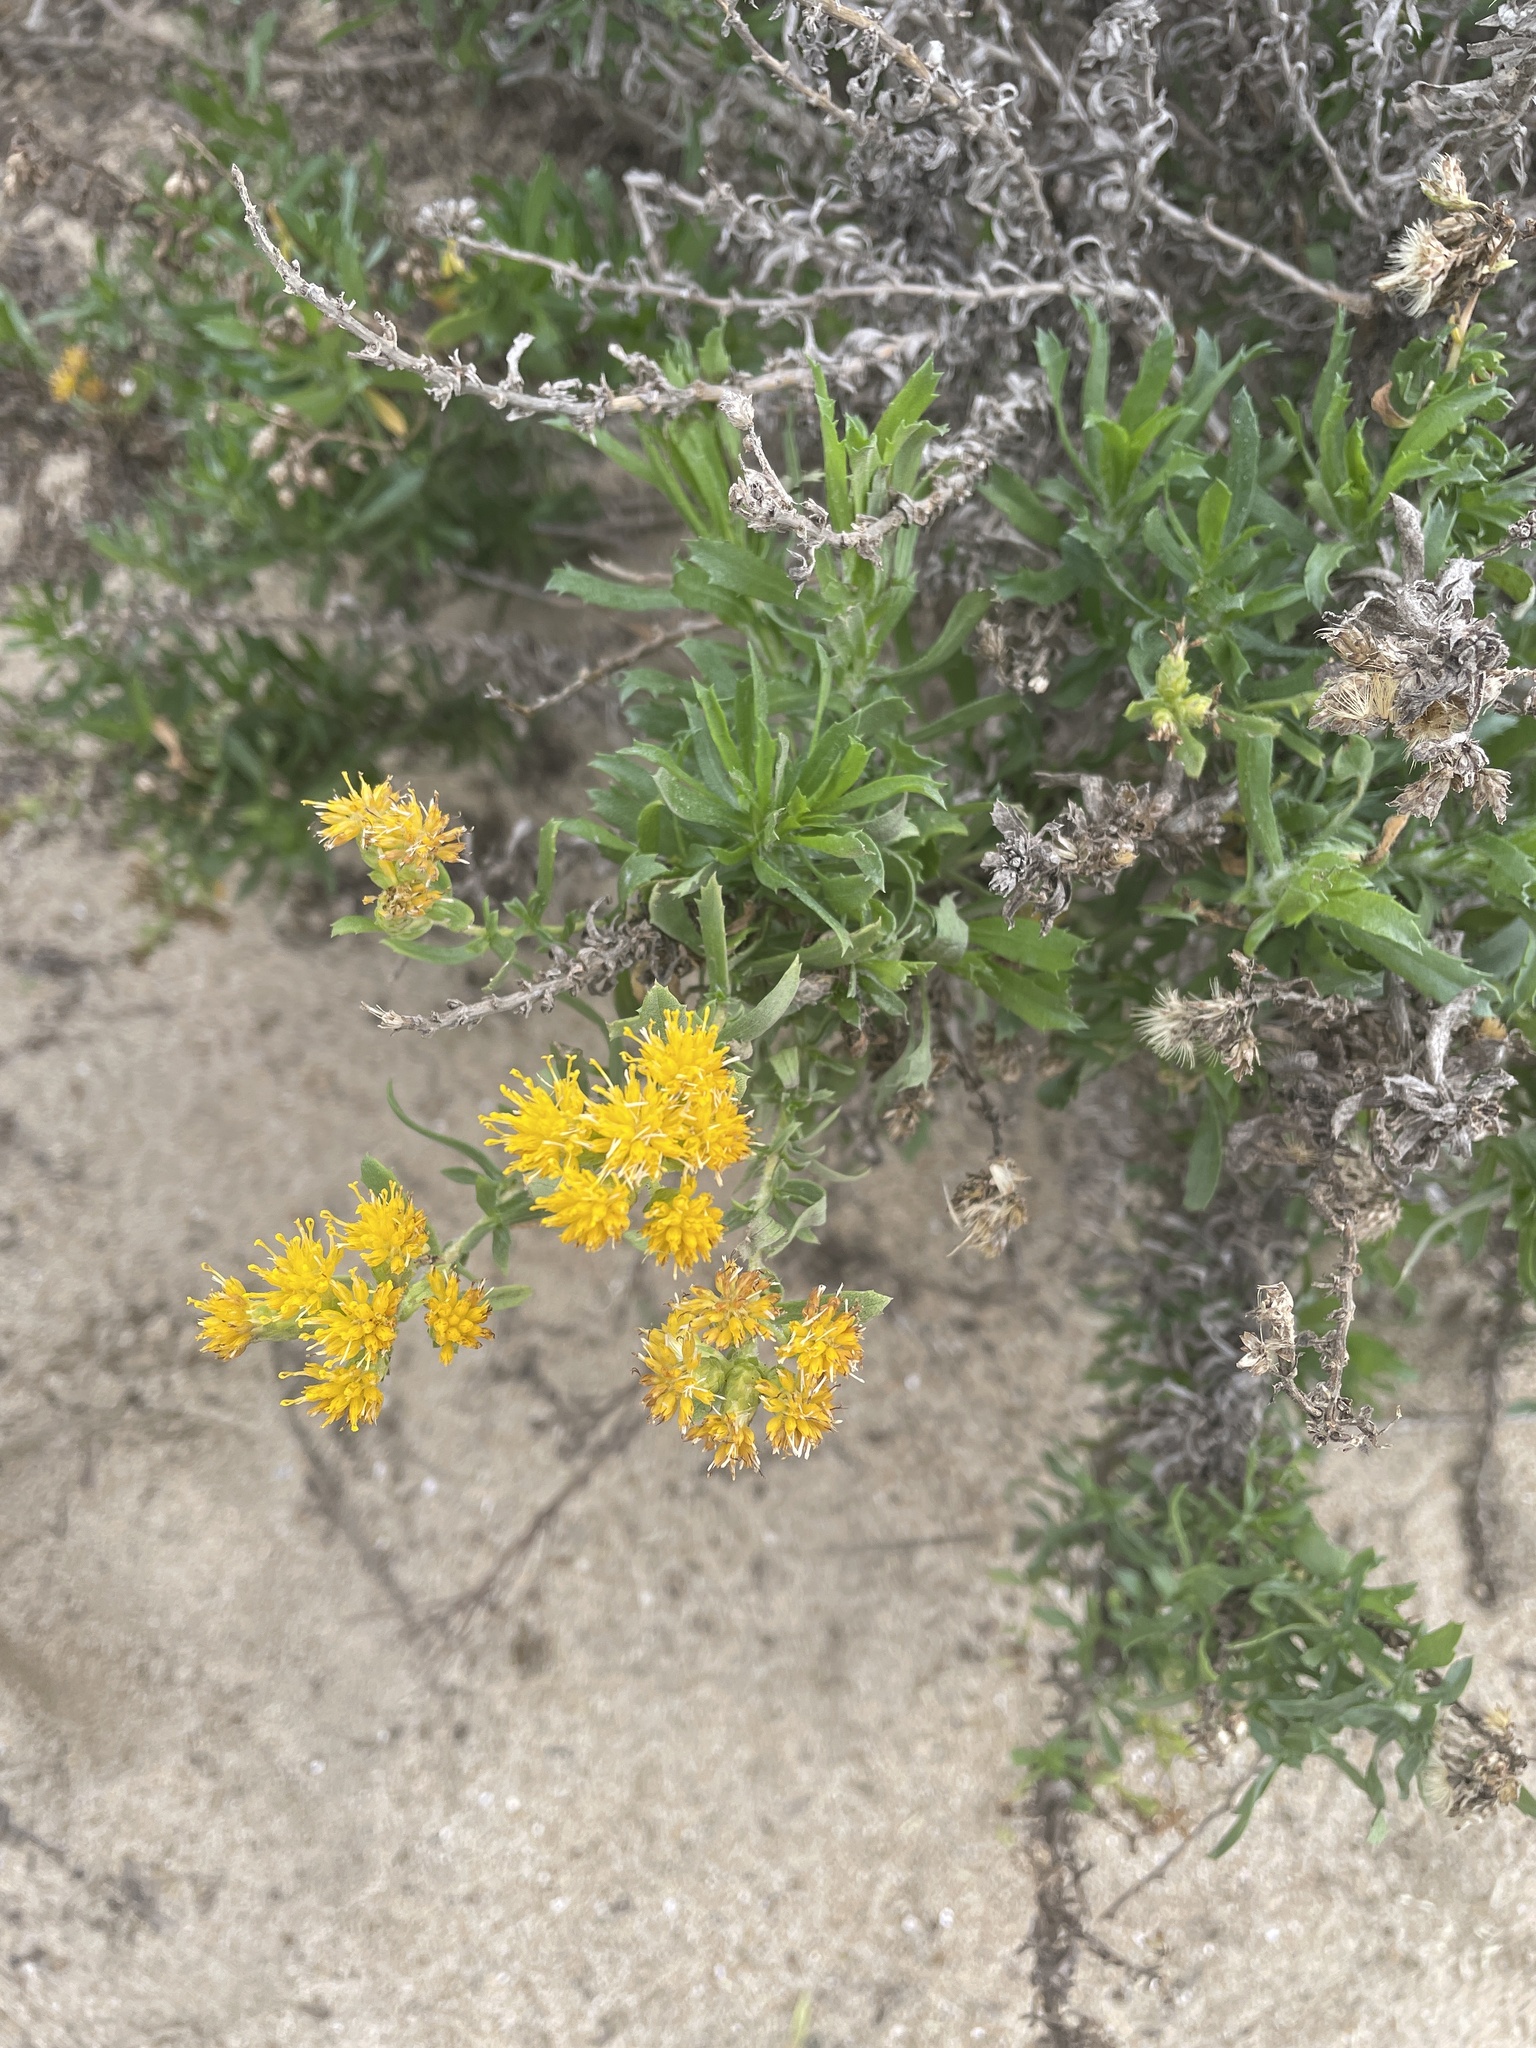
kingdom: Plantae
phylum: Tracheophyta
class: Magnoliopsida
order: Asterales
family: Asteraceae
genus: Isocoma
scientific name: Isocoma menziesii
